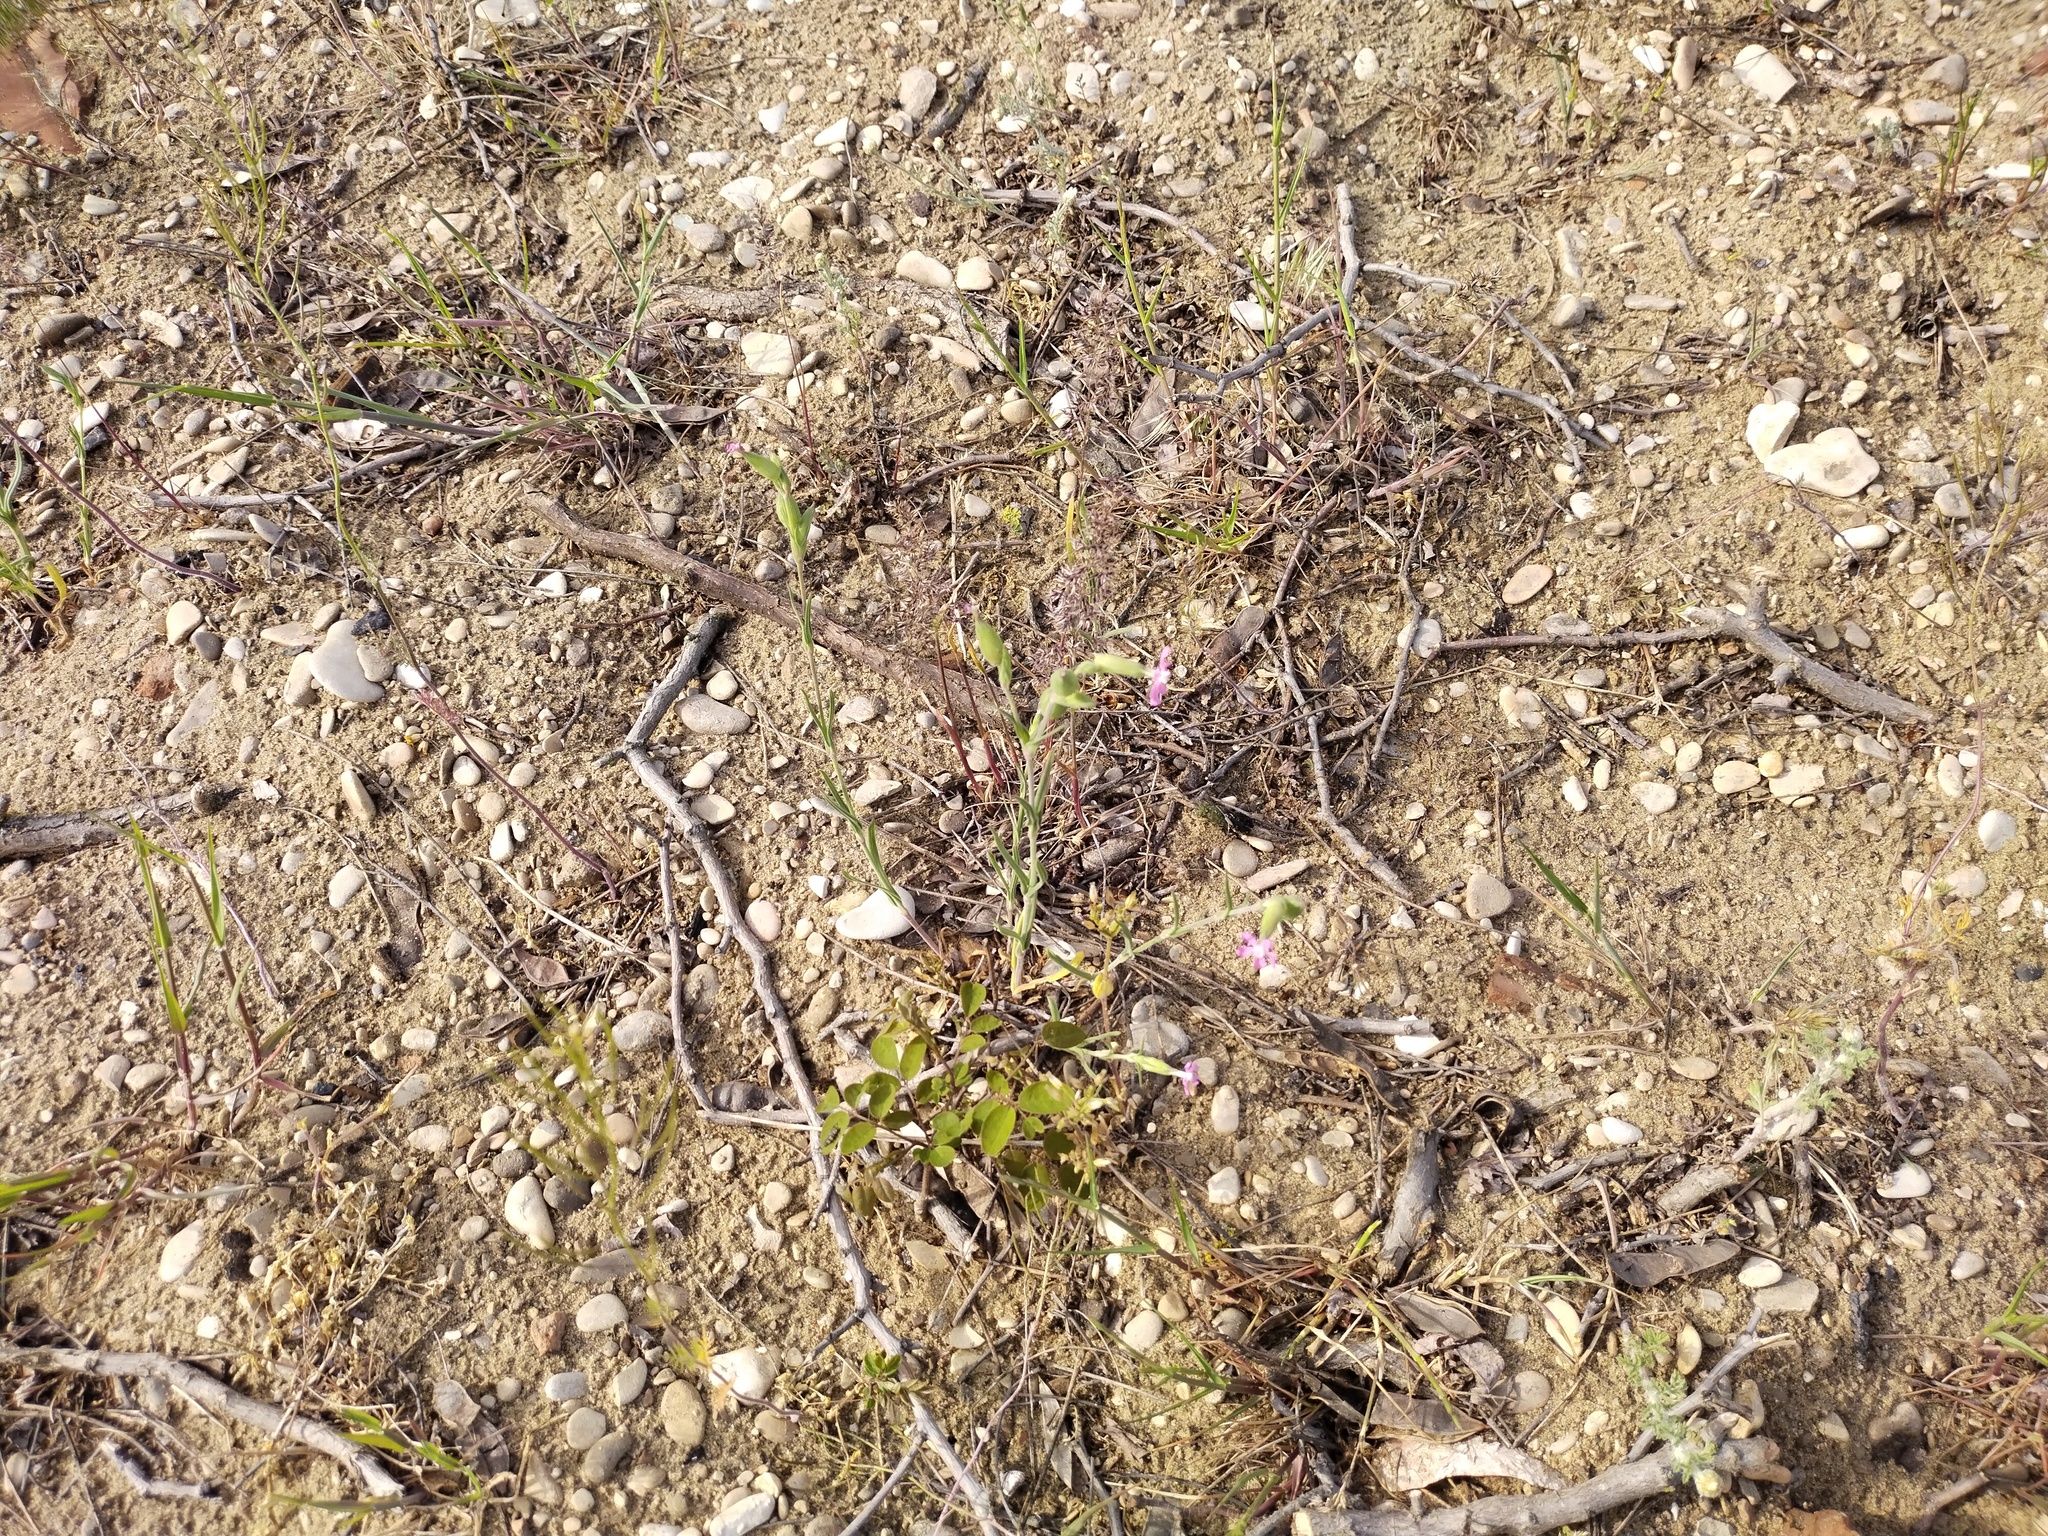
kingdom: Plantae
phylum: Tracheophyta
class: Magnoliopsida
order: Caryophyllales
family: Caryophyllaceae
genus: Silene
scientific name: Silene conica
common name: Sand catchfly
